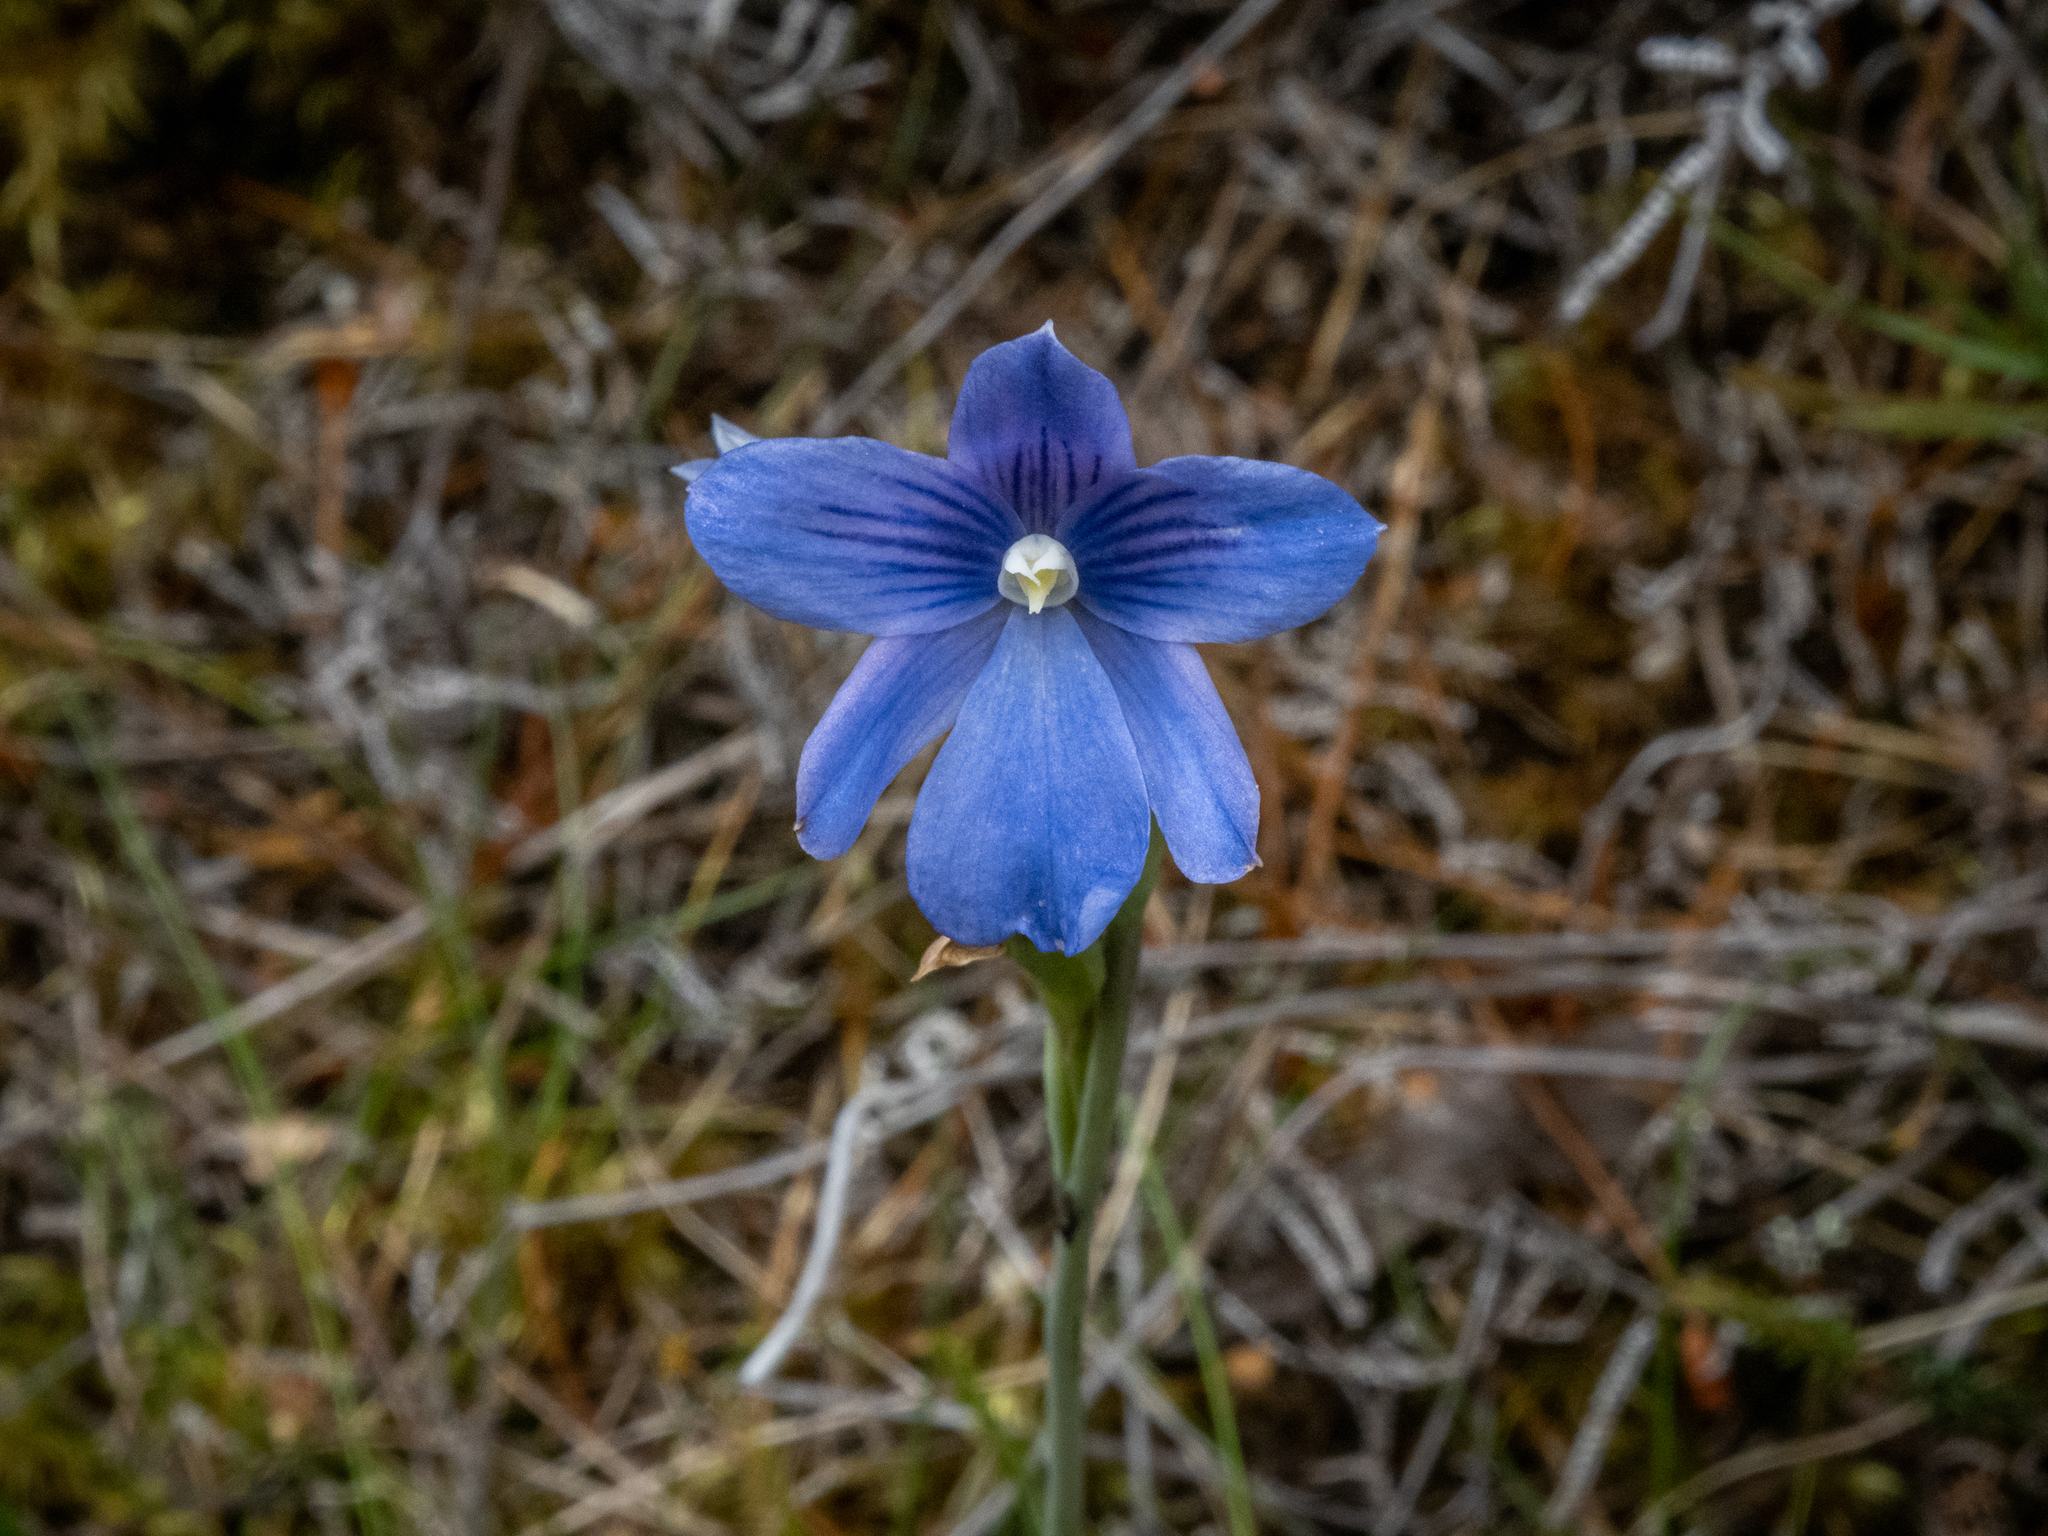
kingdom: Plantae
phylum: Tracheophyta
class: Liliopsida
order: Asparagales
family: Orchidaceae
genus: Thelymitra
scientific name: Thelymitra cyanea
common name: Blue sun-orchid
